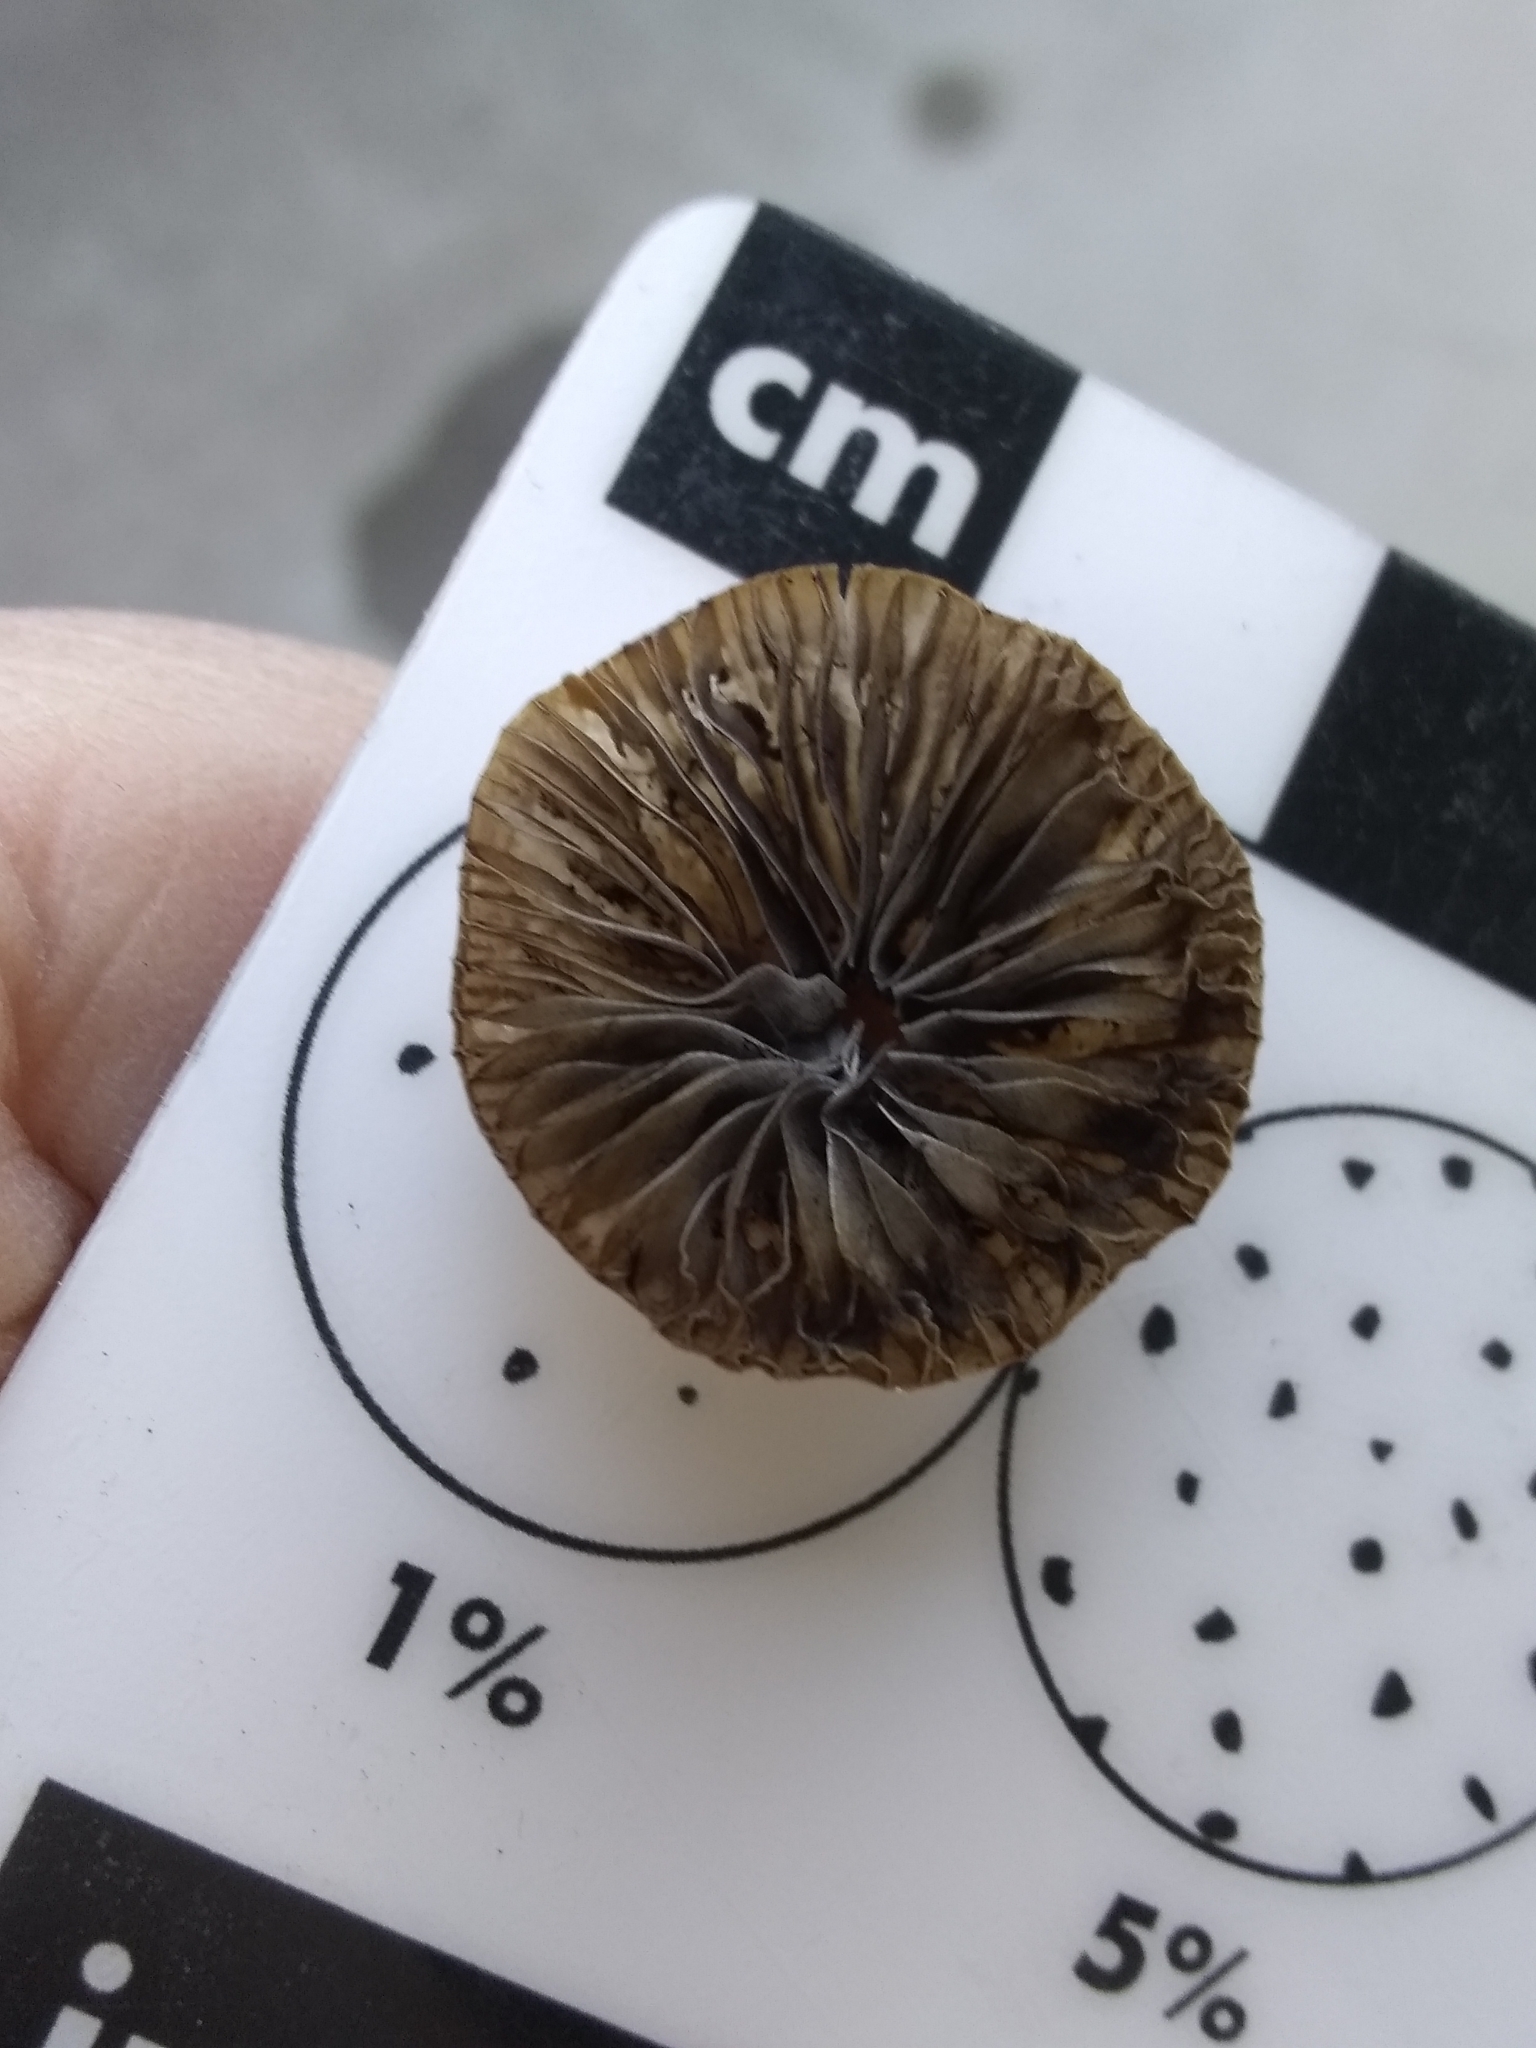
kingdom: Fungi
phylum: Basidiomycota
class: Agaricomycetes
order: Agaricales
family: Psathyrellaceae
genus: Psathyrella
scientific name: Psathyrella corrugis
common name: Red edge brittlestem
